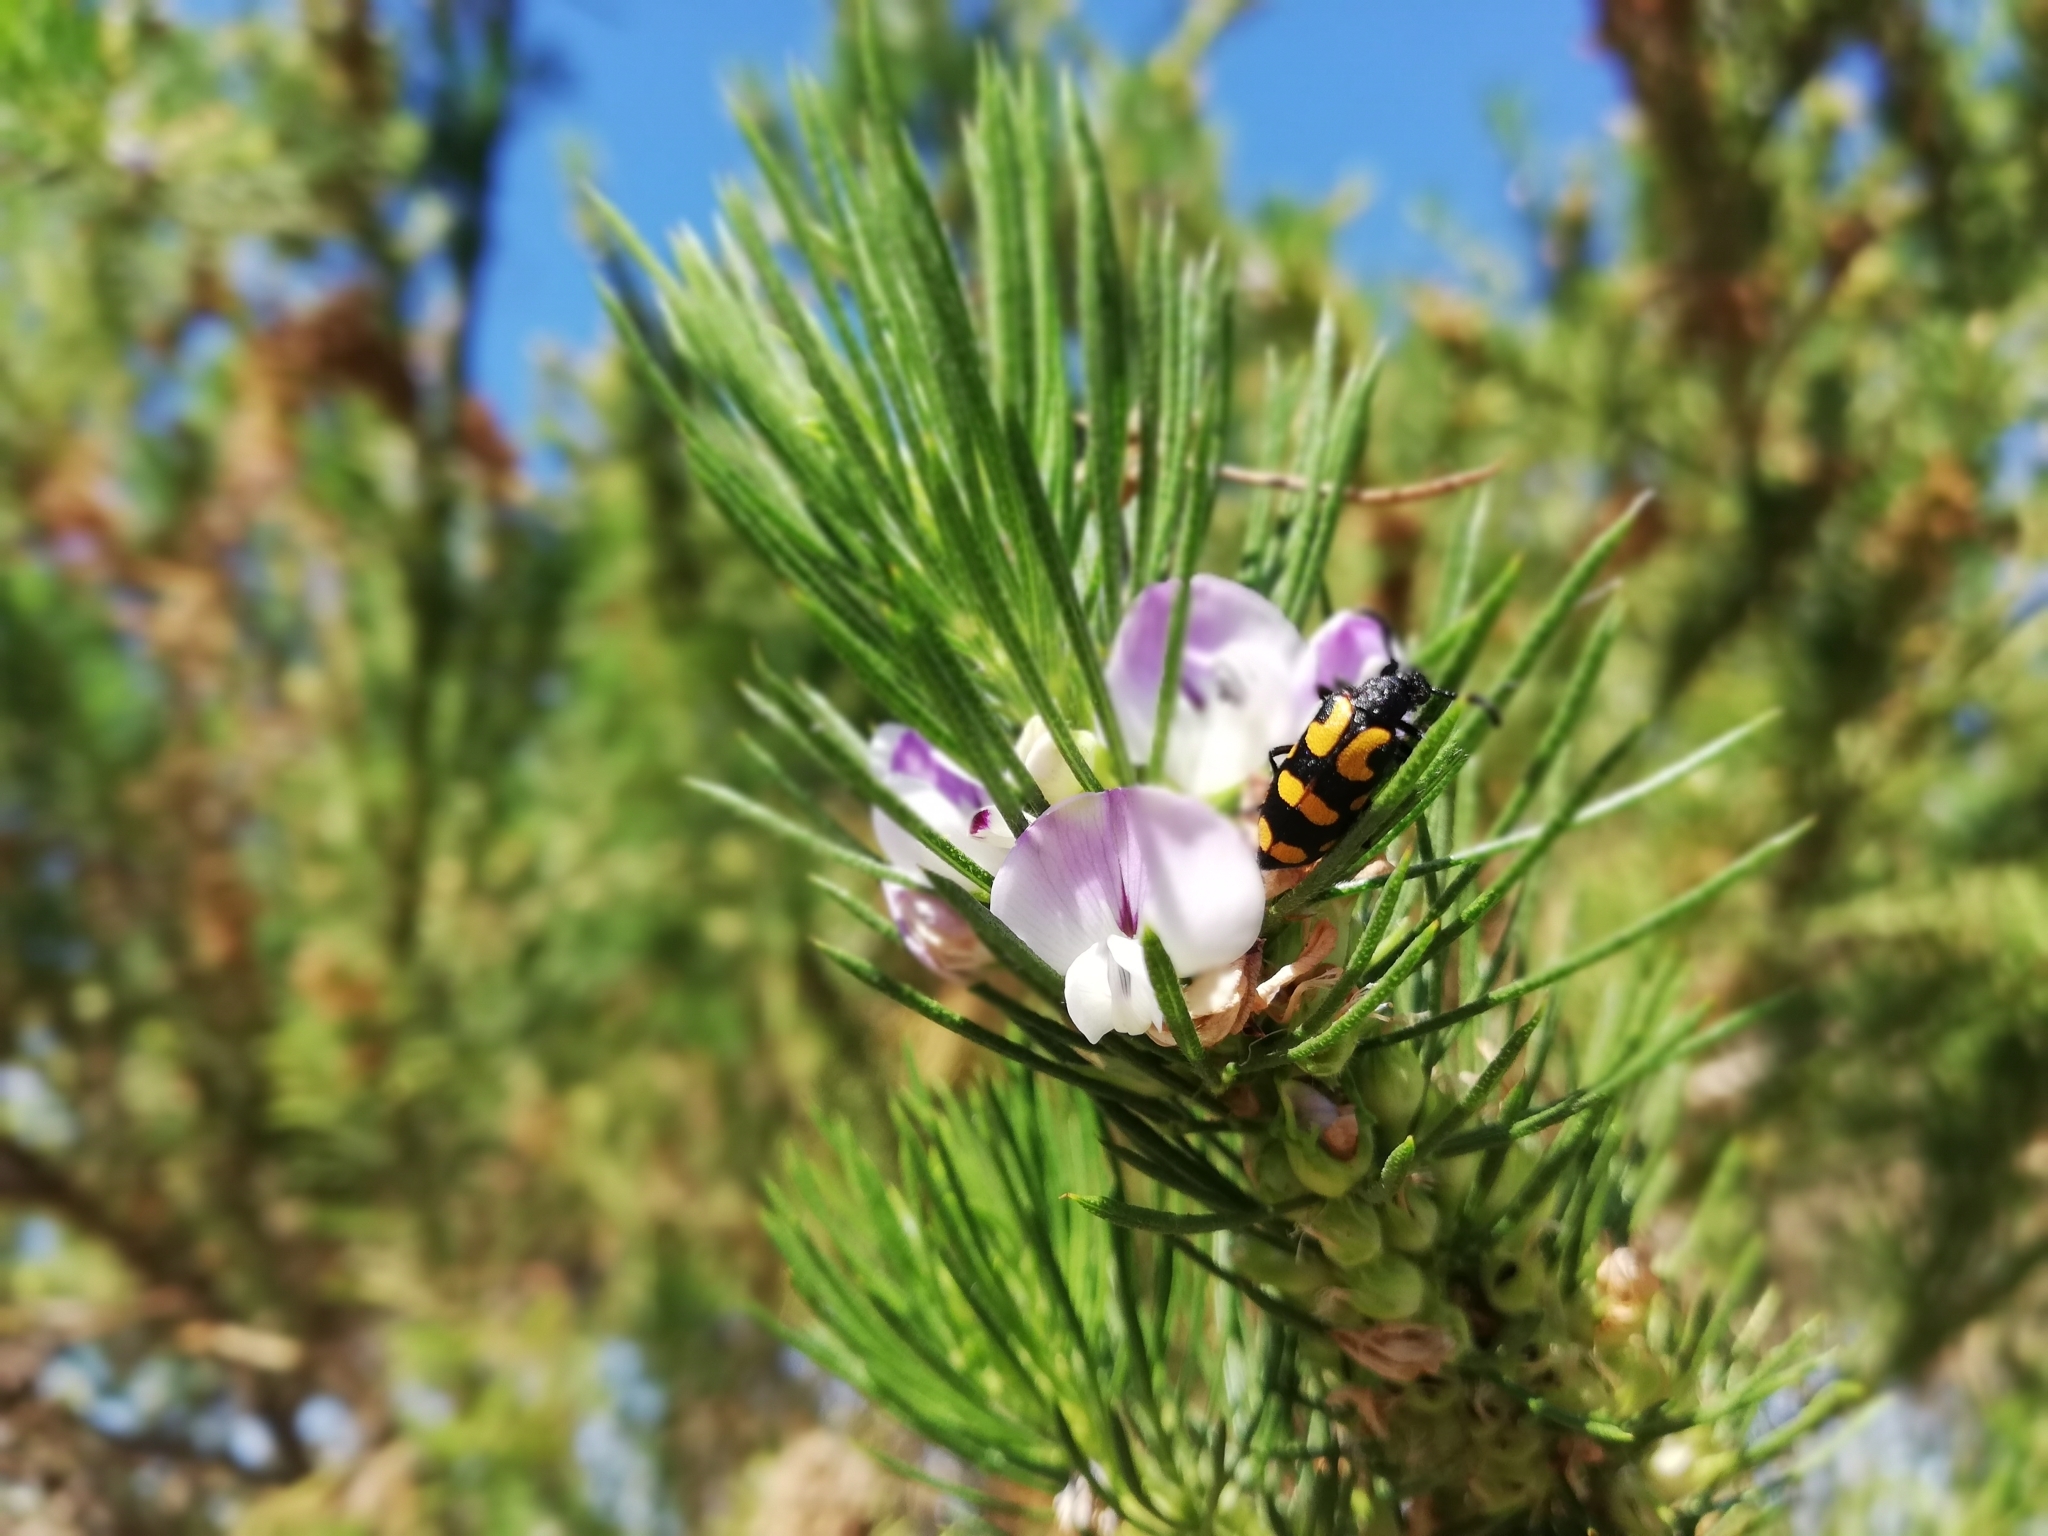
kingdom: Plantae
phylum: Tracheophyta
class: Magnoliopsida
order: Fabales
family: Fabaceae
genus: Psoralea
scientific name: Psoralea pinnata
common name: African scurfpea
